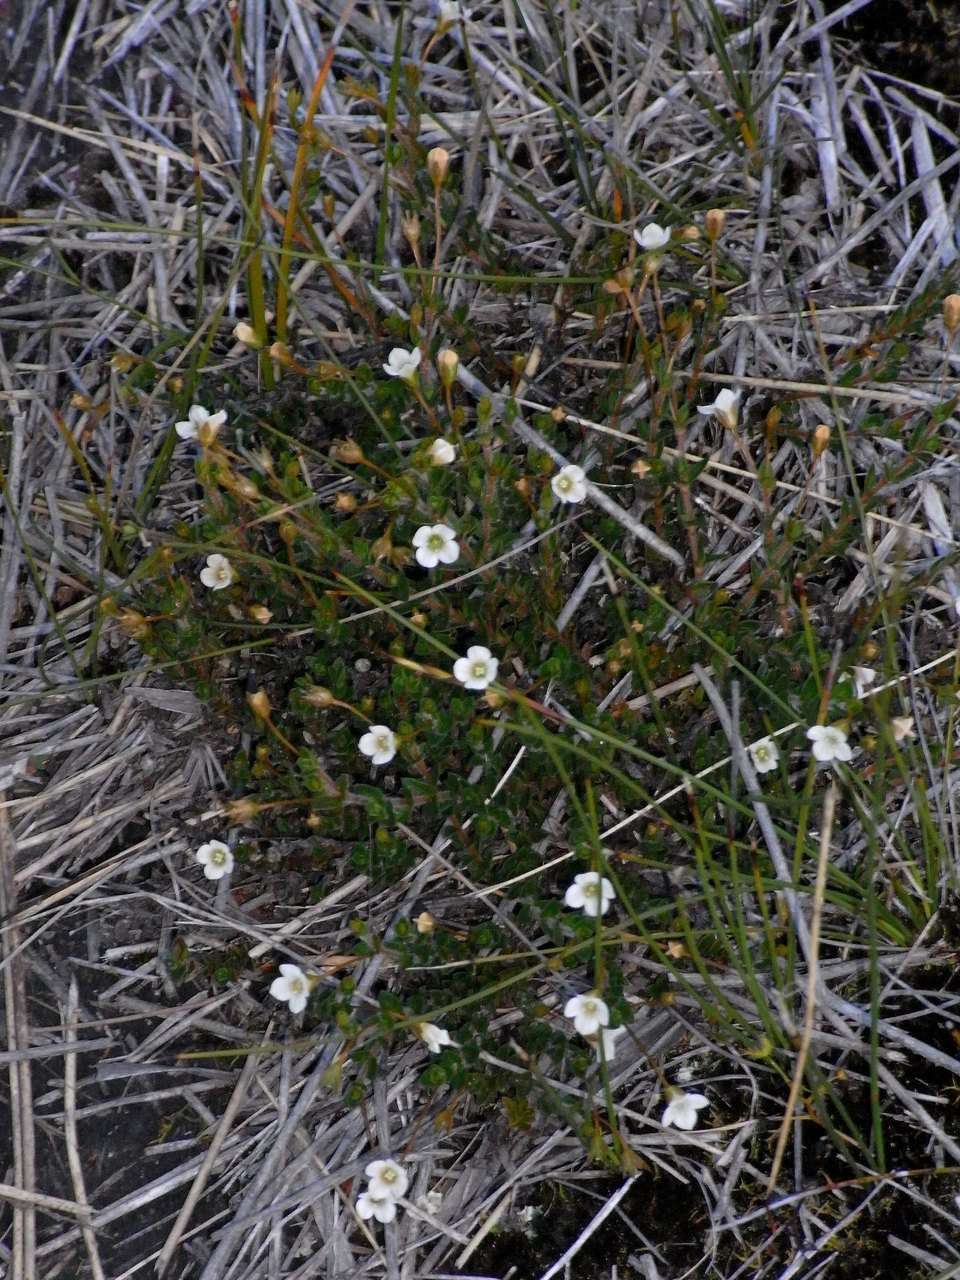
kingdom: Plantae
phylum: Tracheophyta
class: Magnoliopsida
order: Gentianales
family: Loganiaceae
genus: Mitrasacme
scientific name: Mitrasacme pilosa
